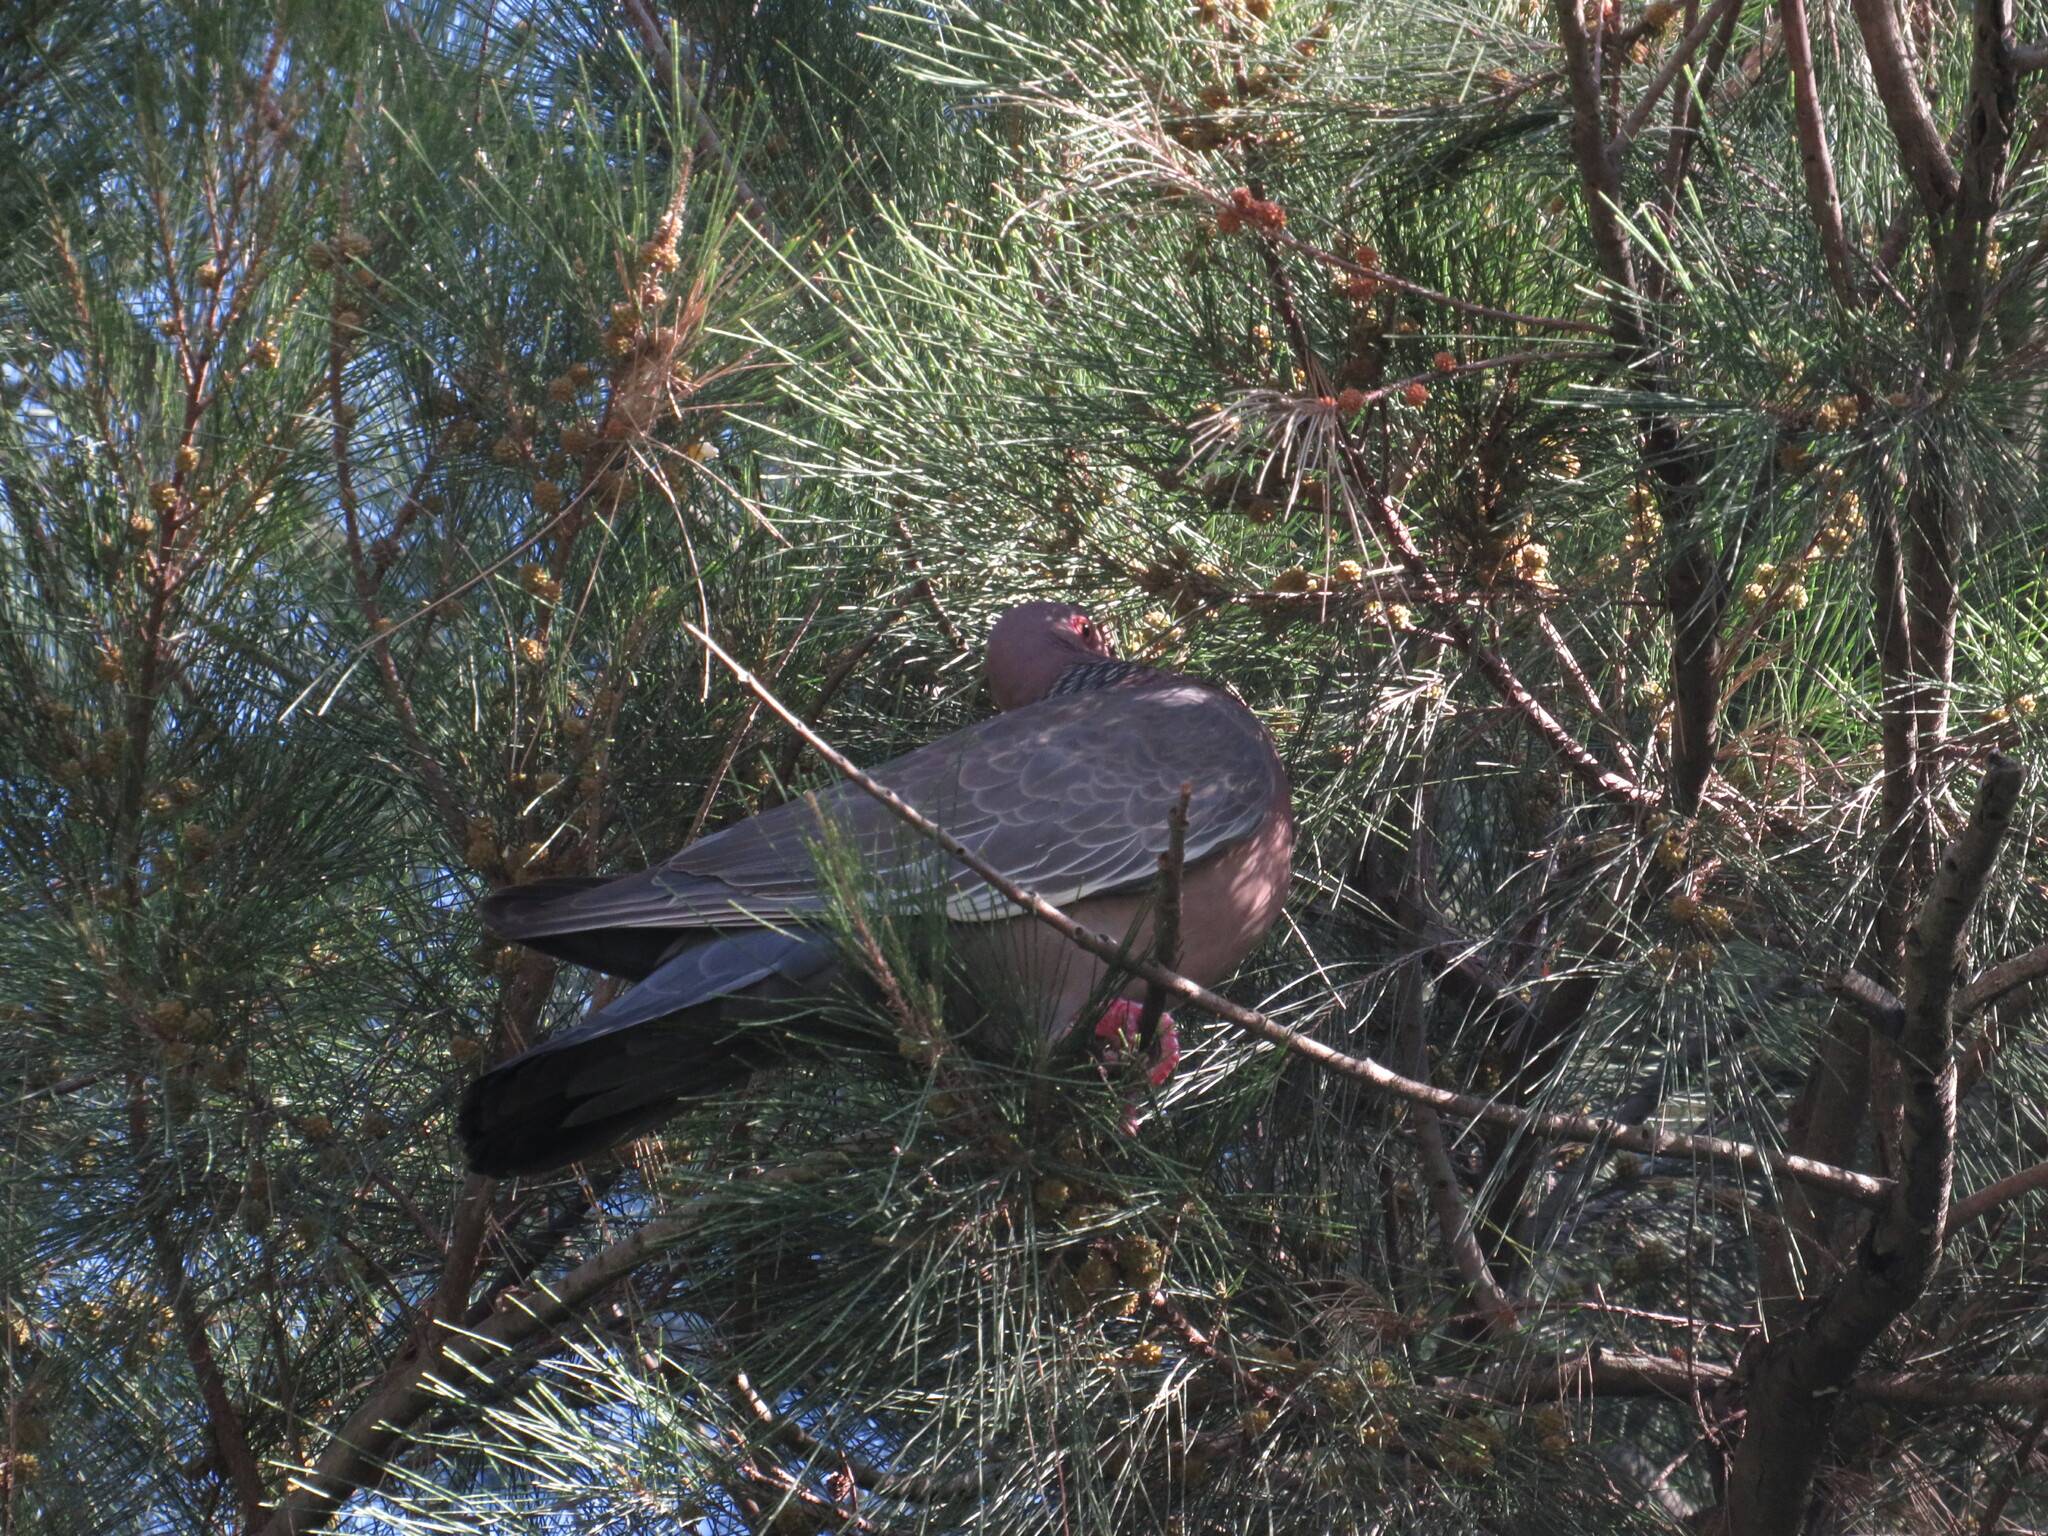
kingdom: Animalia
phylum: Chordata
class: Aves
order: Columbiformes
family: Columbidae
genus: Patagioenas
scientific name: Patagioenas picazuro
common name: Picazuro pigeon
